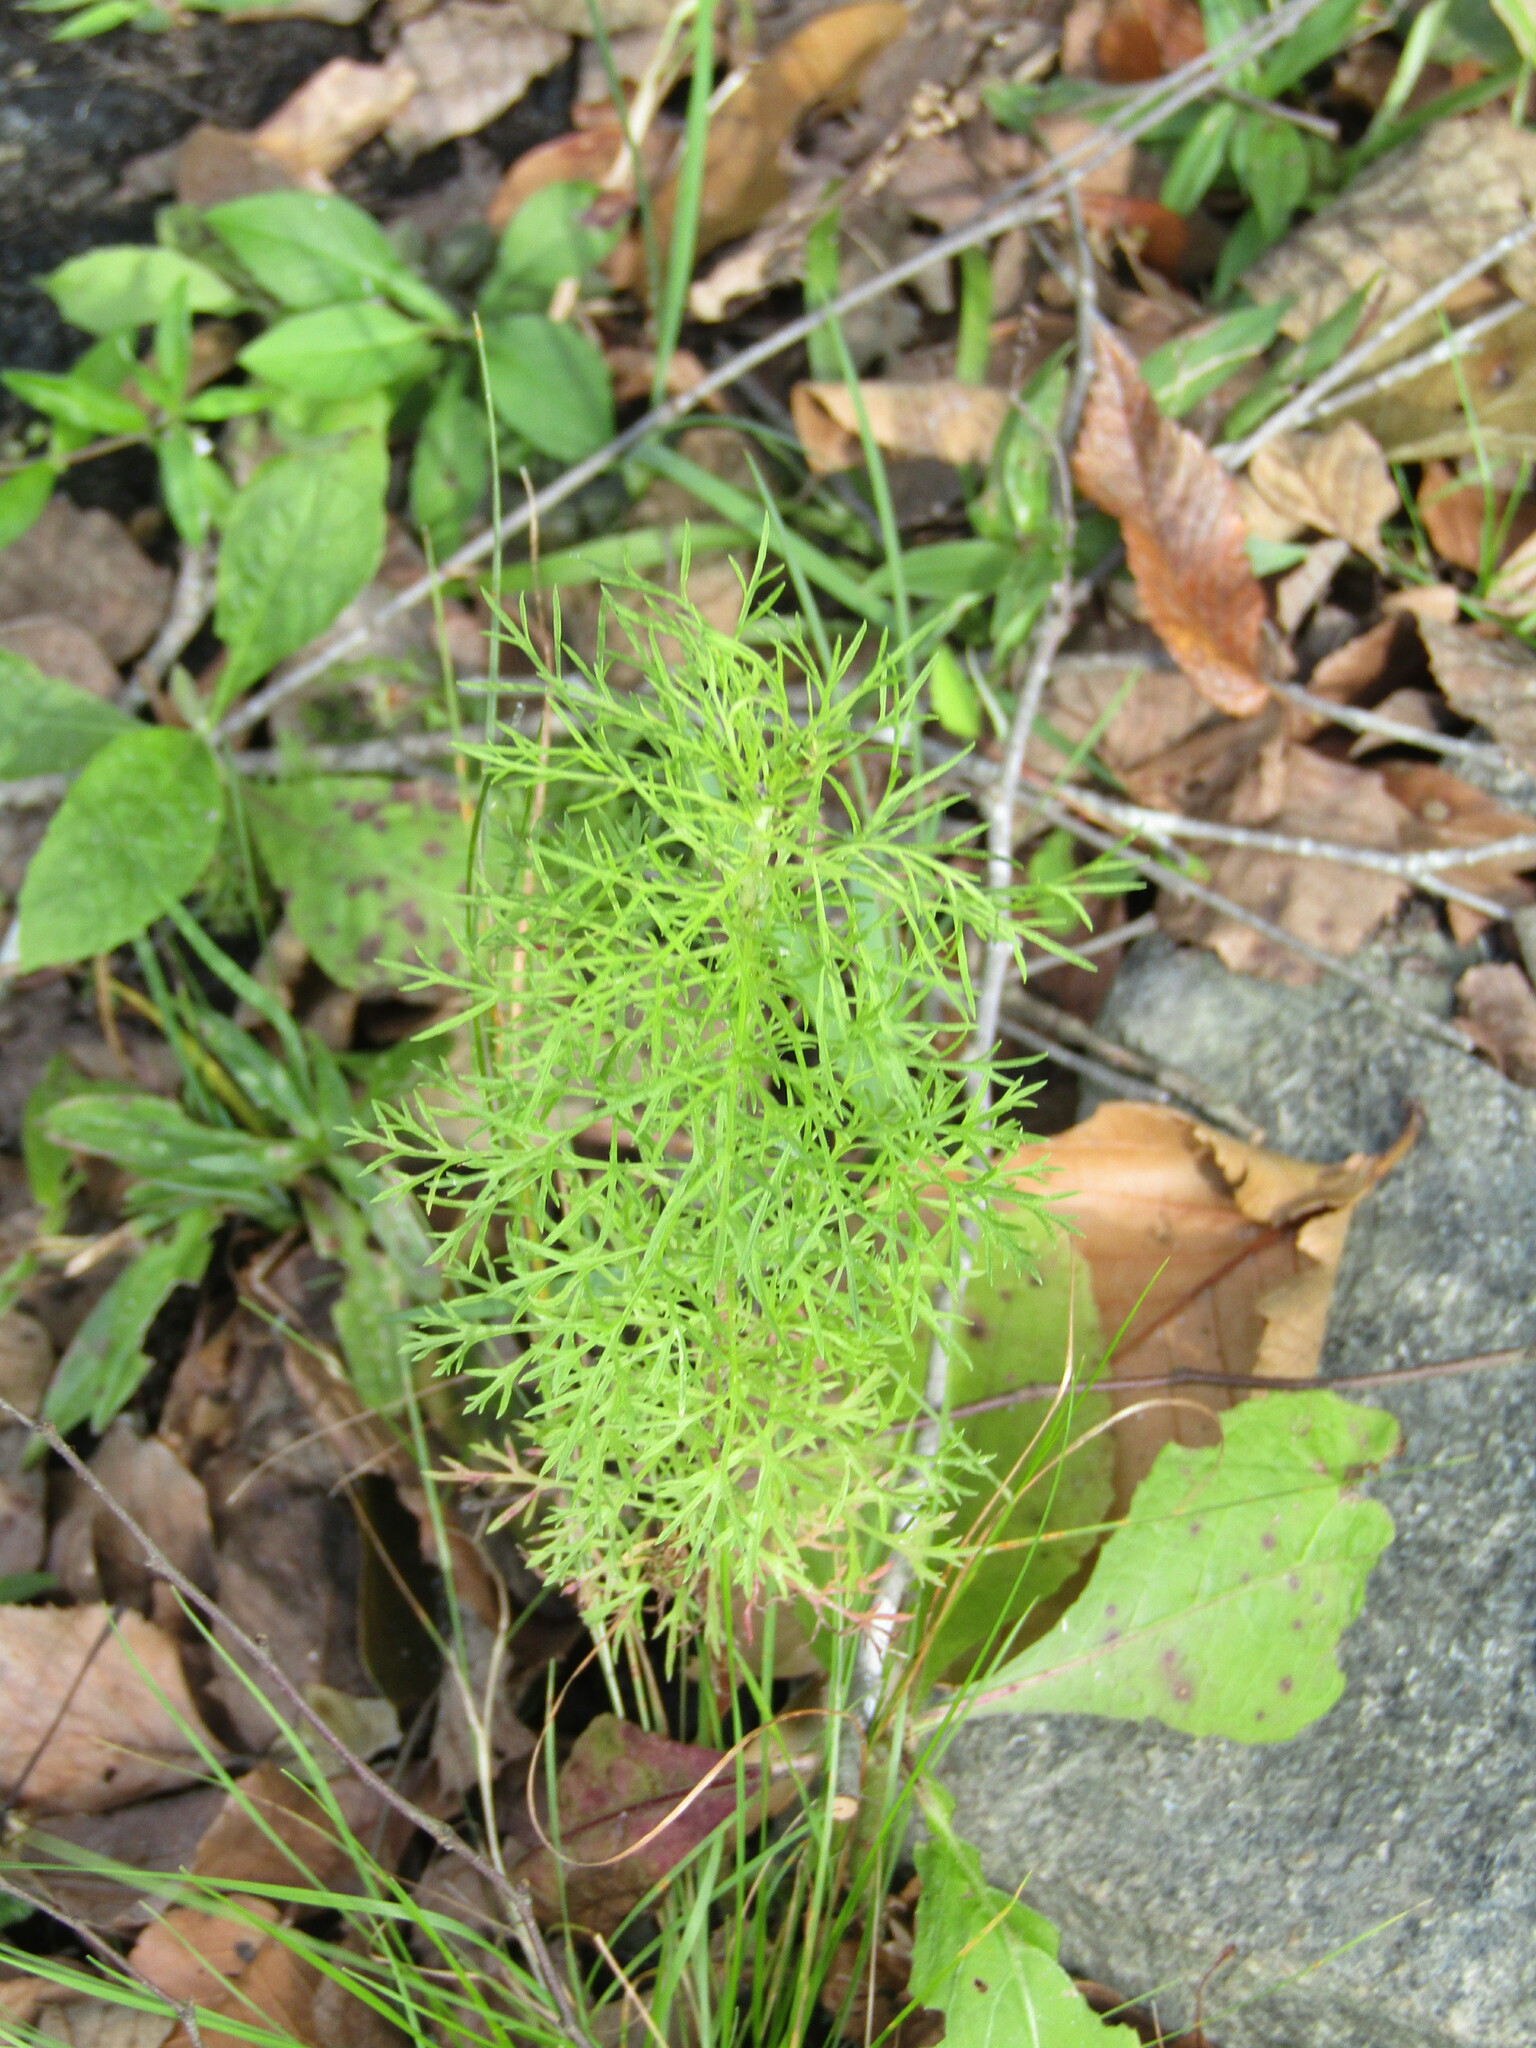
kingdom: Plantae
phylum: Tracheophyta
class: Magnoliopsida
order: Asterales
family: Asteraceae
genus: Eupatorium
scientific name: Eupatorium capillifolium
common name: Dog-fennel
